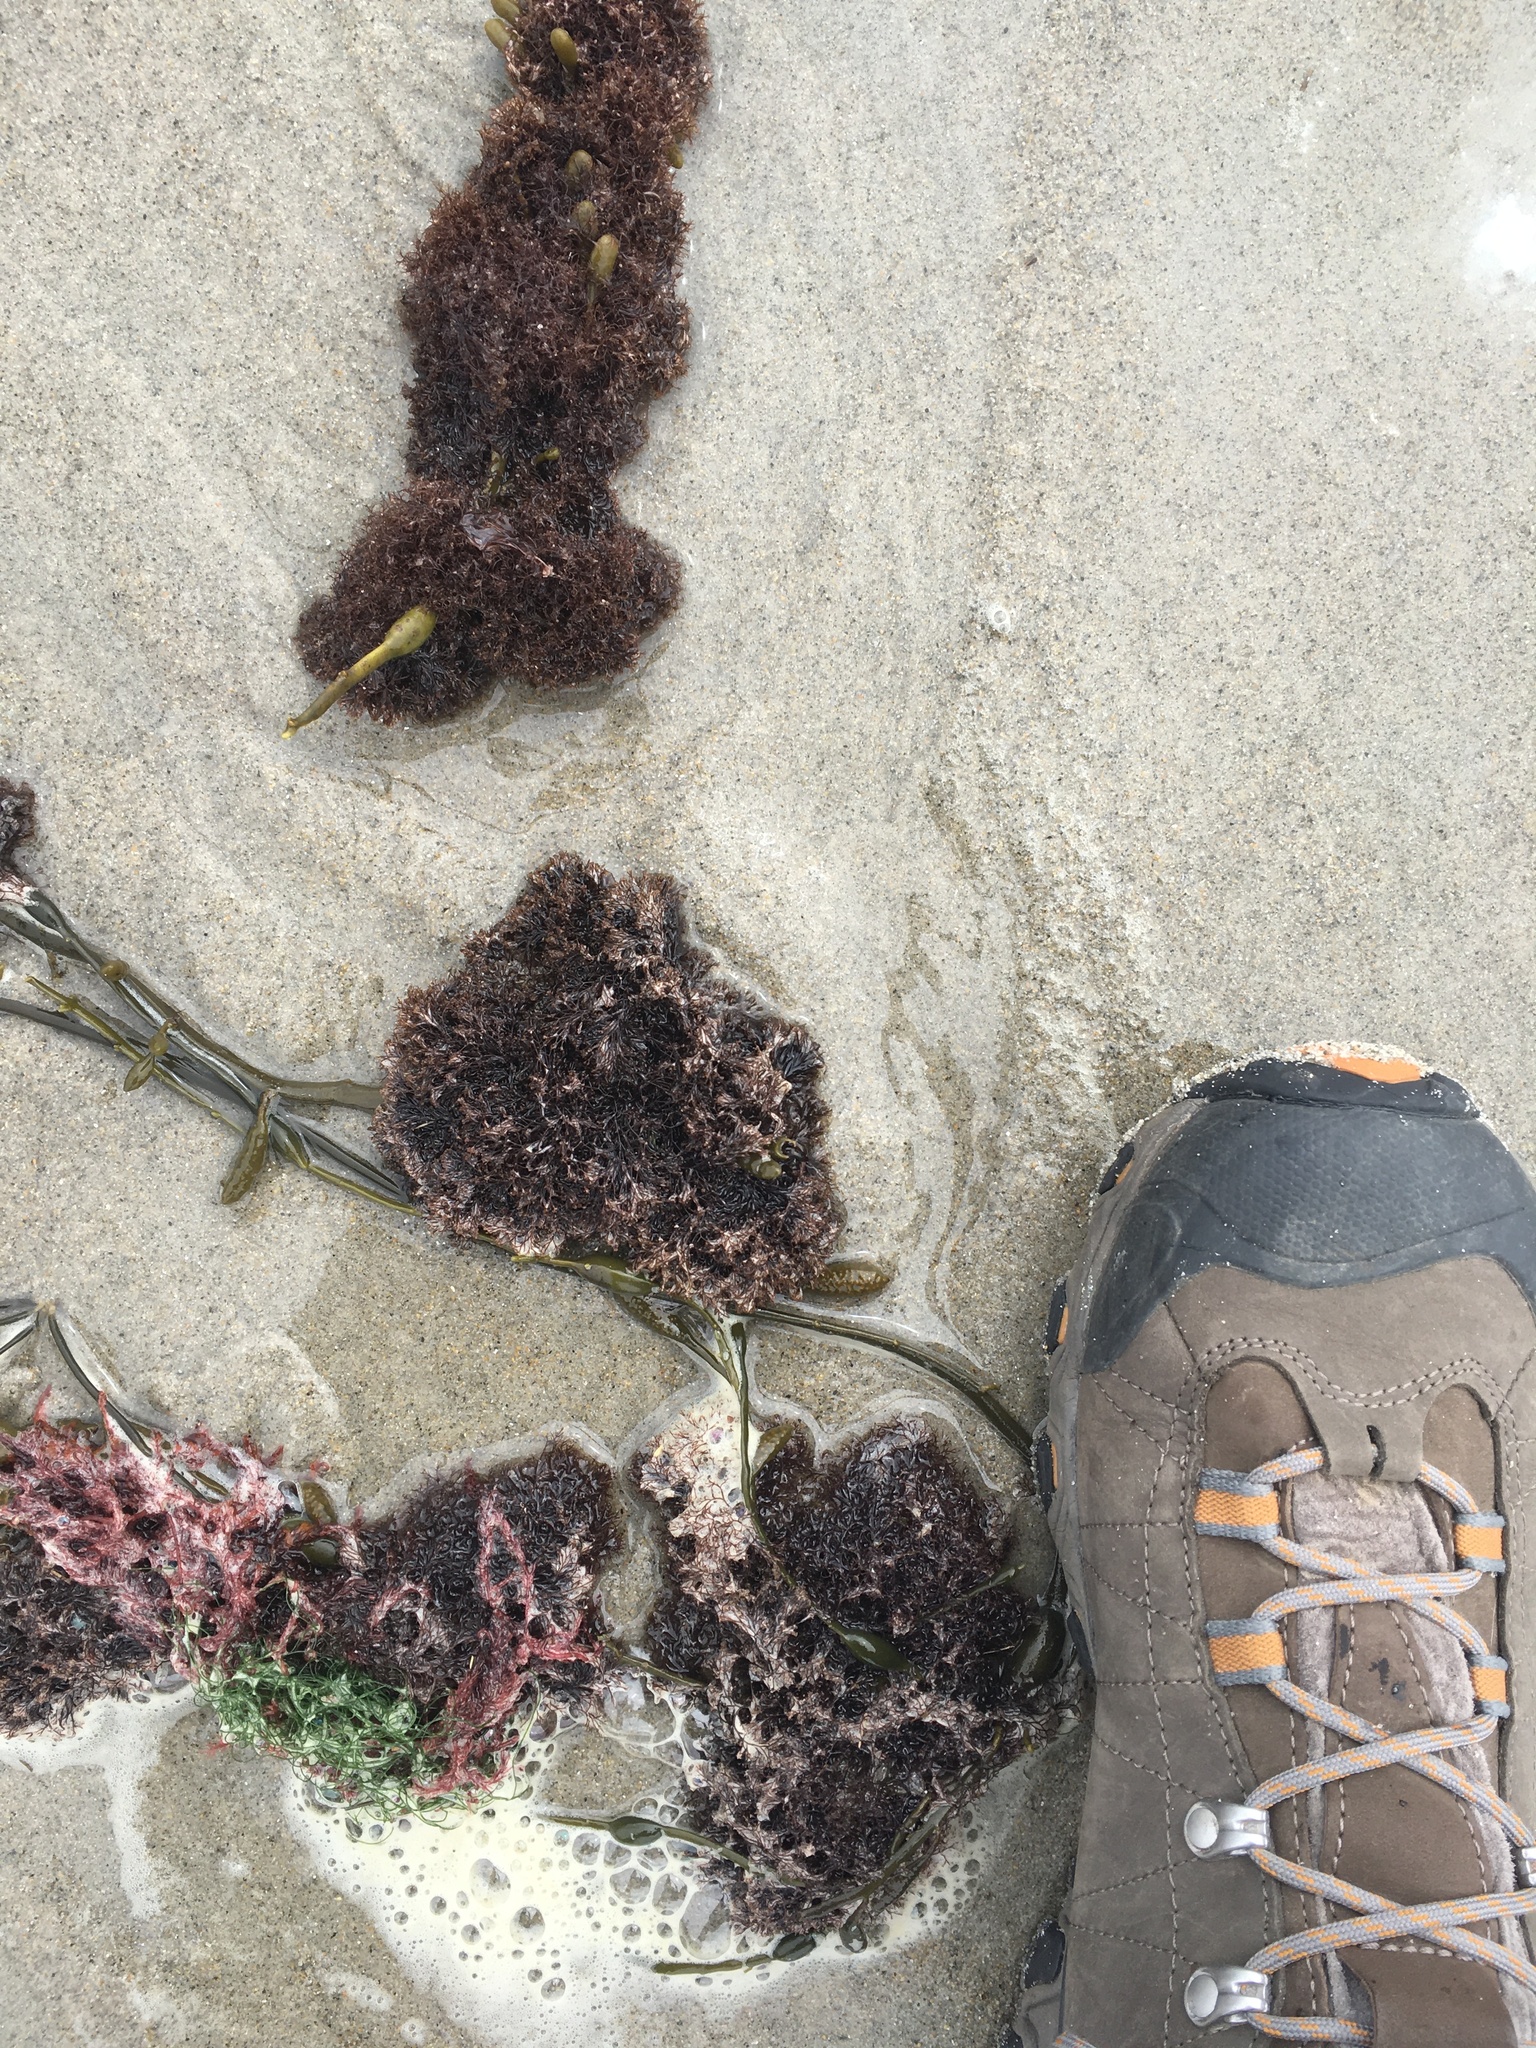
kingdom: Plantae
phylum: Rhodophyta
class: Florideophyceae
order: Ceramiales
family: Rhodomelaceae
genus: Vertebrata
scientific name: Vertebrata lanosa
